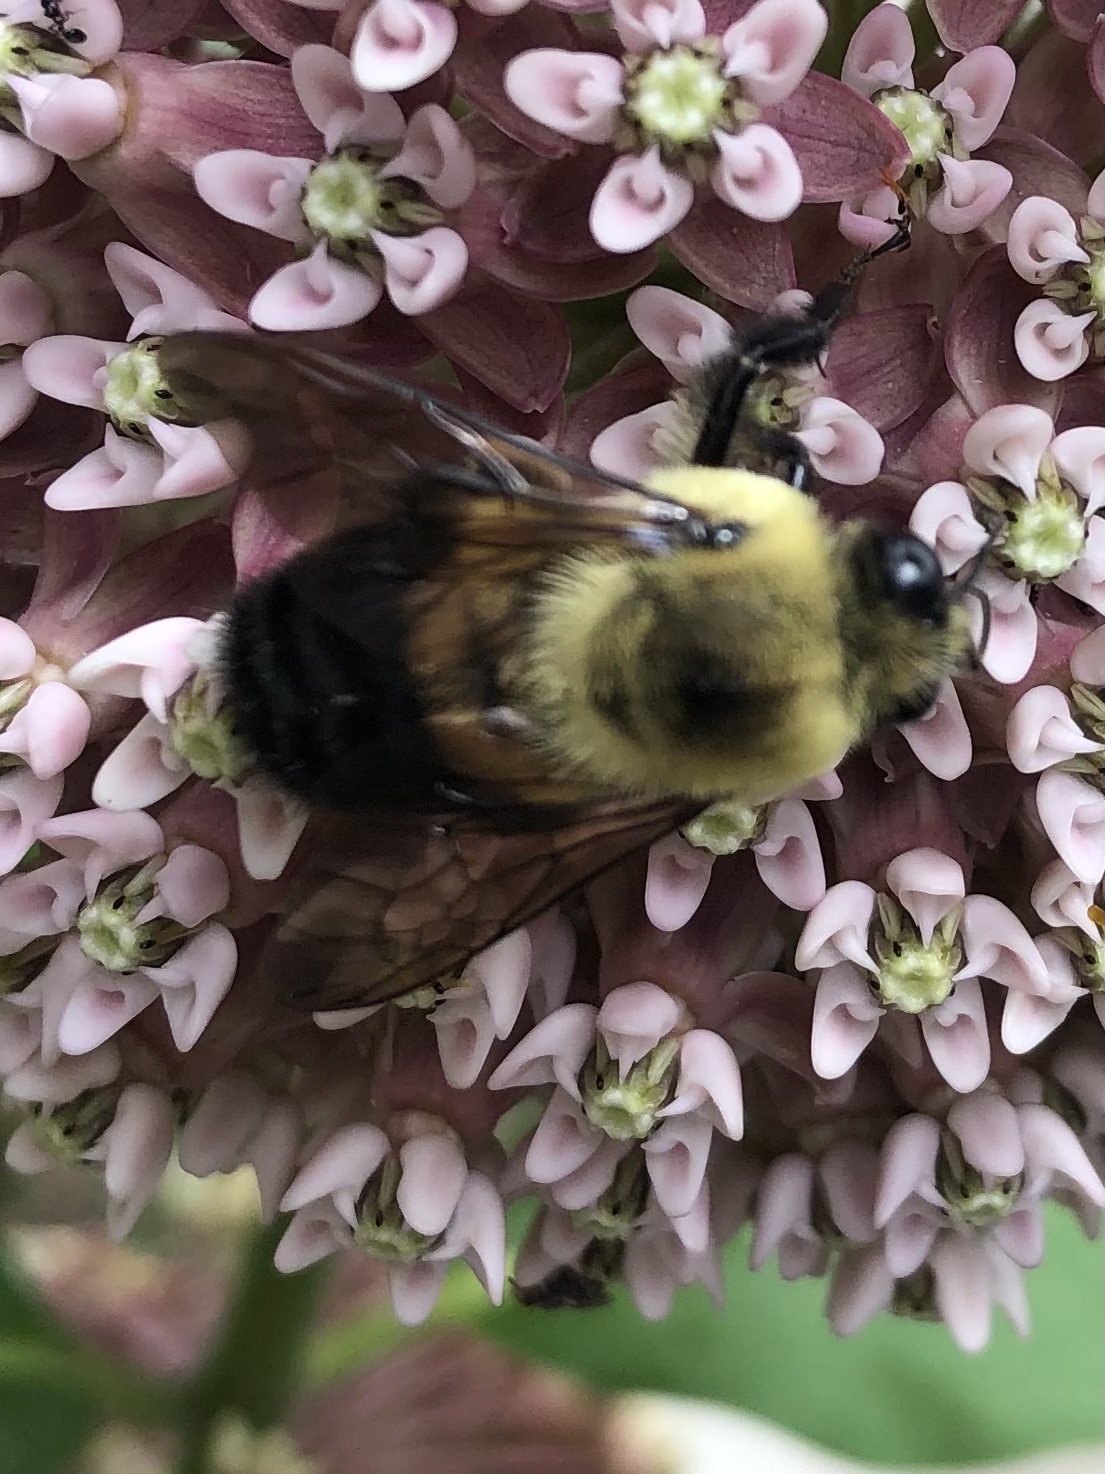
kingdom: Animalia
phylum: Arthropoda
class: Insecta
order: Hymenoptera
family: Apidae
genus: Bombus
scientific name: Bombus griseocollis
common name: Brown-belted bumble bee
